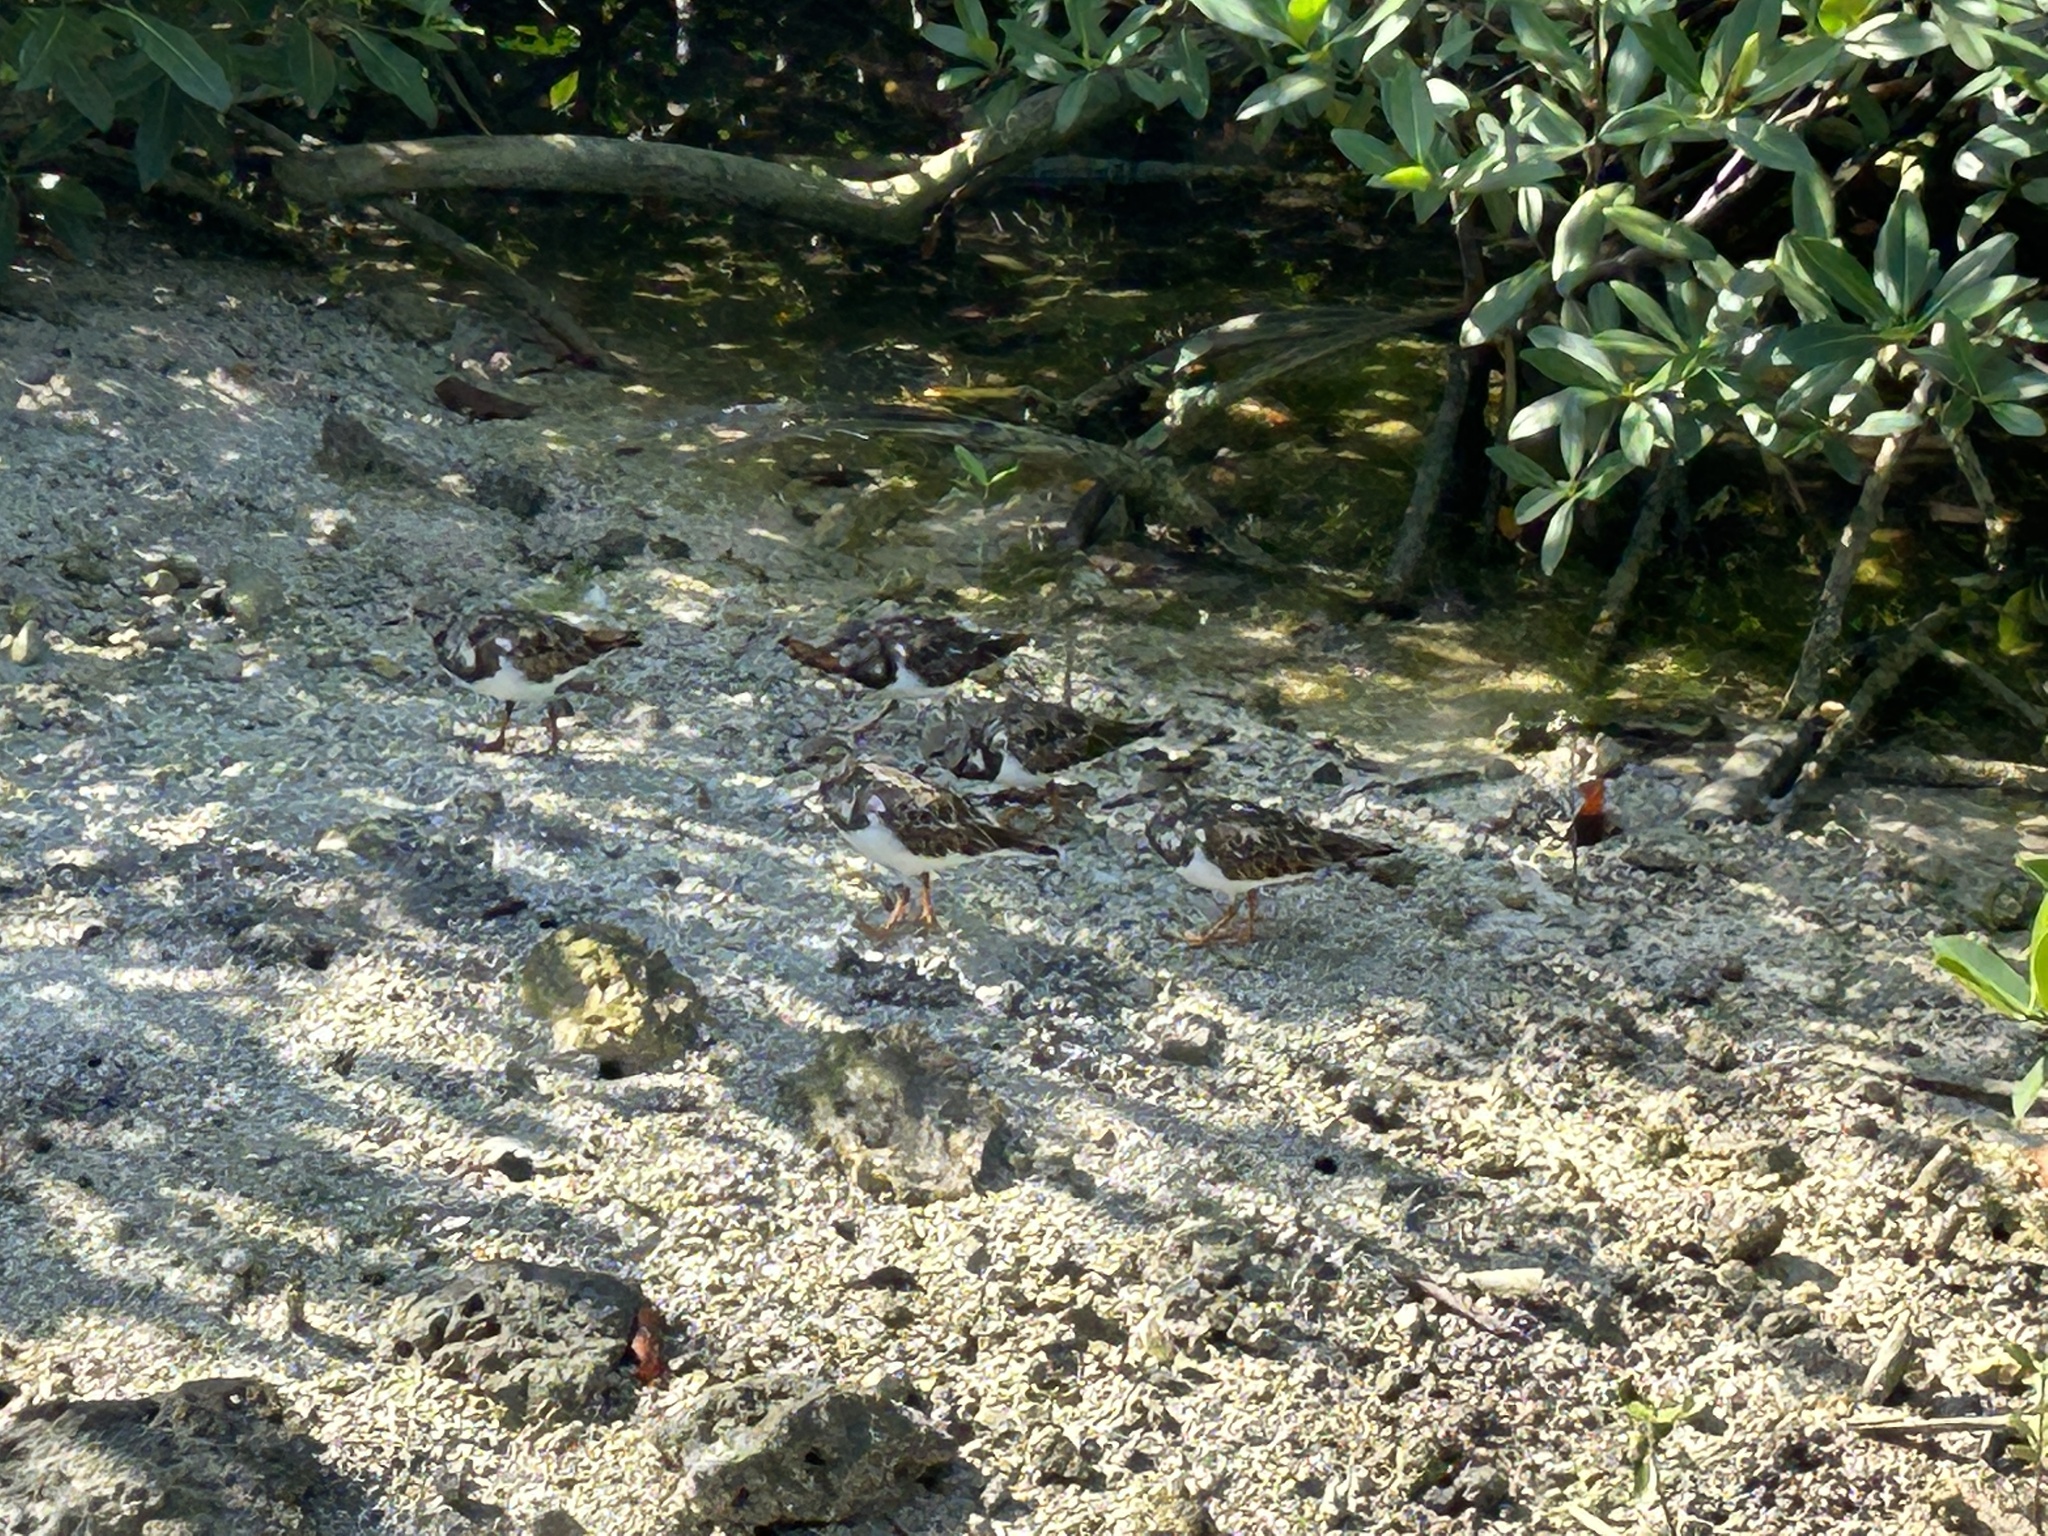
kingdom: Animalia
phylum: Chordata
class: Aves
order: Charadriiformes
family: Scolopacidae
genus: Arenaria
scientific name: Arenaria interpres
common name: Ruddy turnstone
